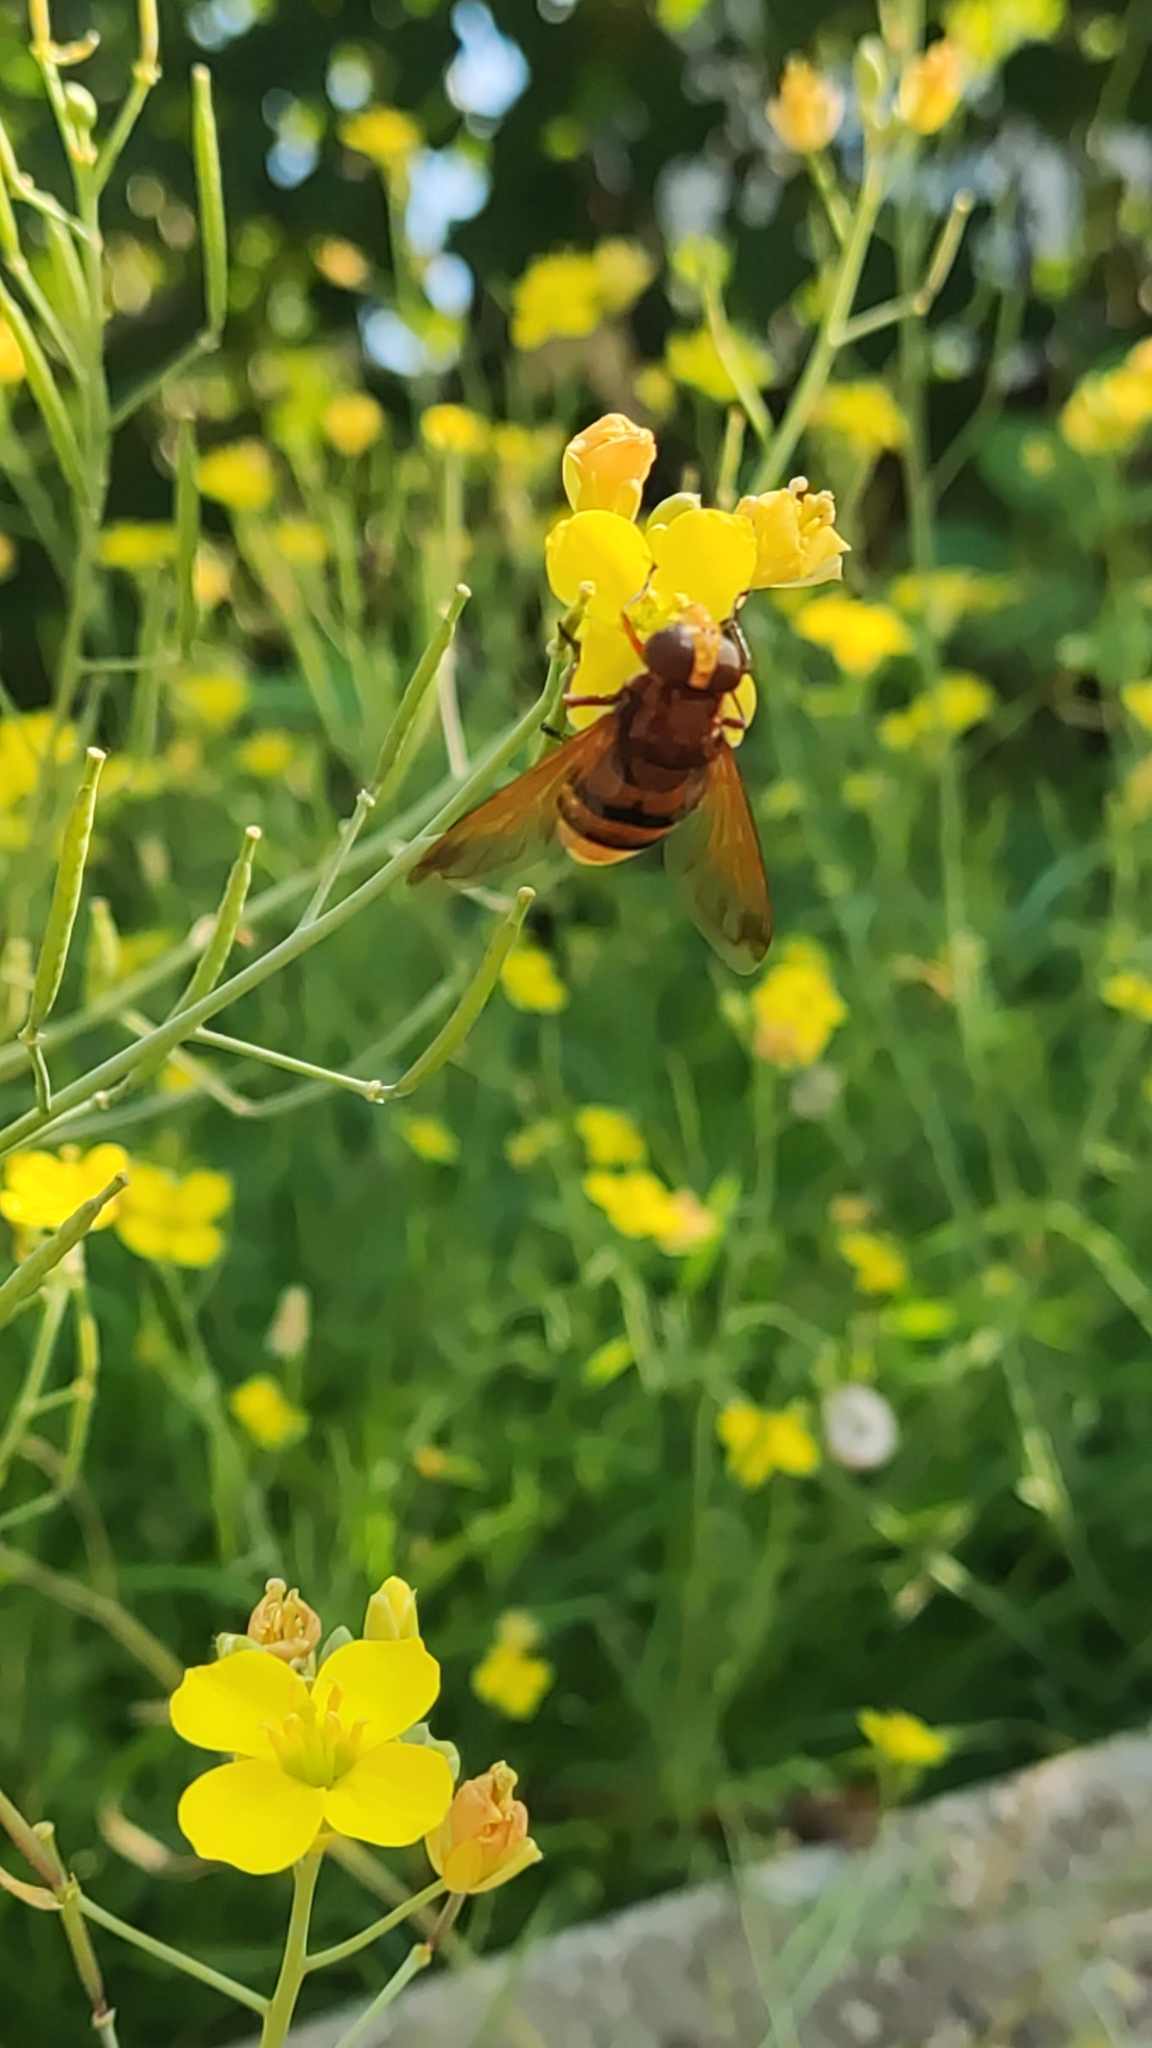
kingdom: Animalia
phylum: Arthropoda
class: Insecta
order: Diptera
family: Syrphidae
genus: Volucella
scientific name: Volucella zonaria
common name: Hornet hoverfly
